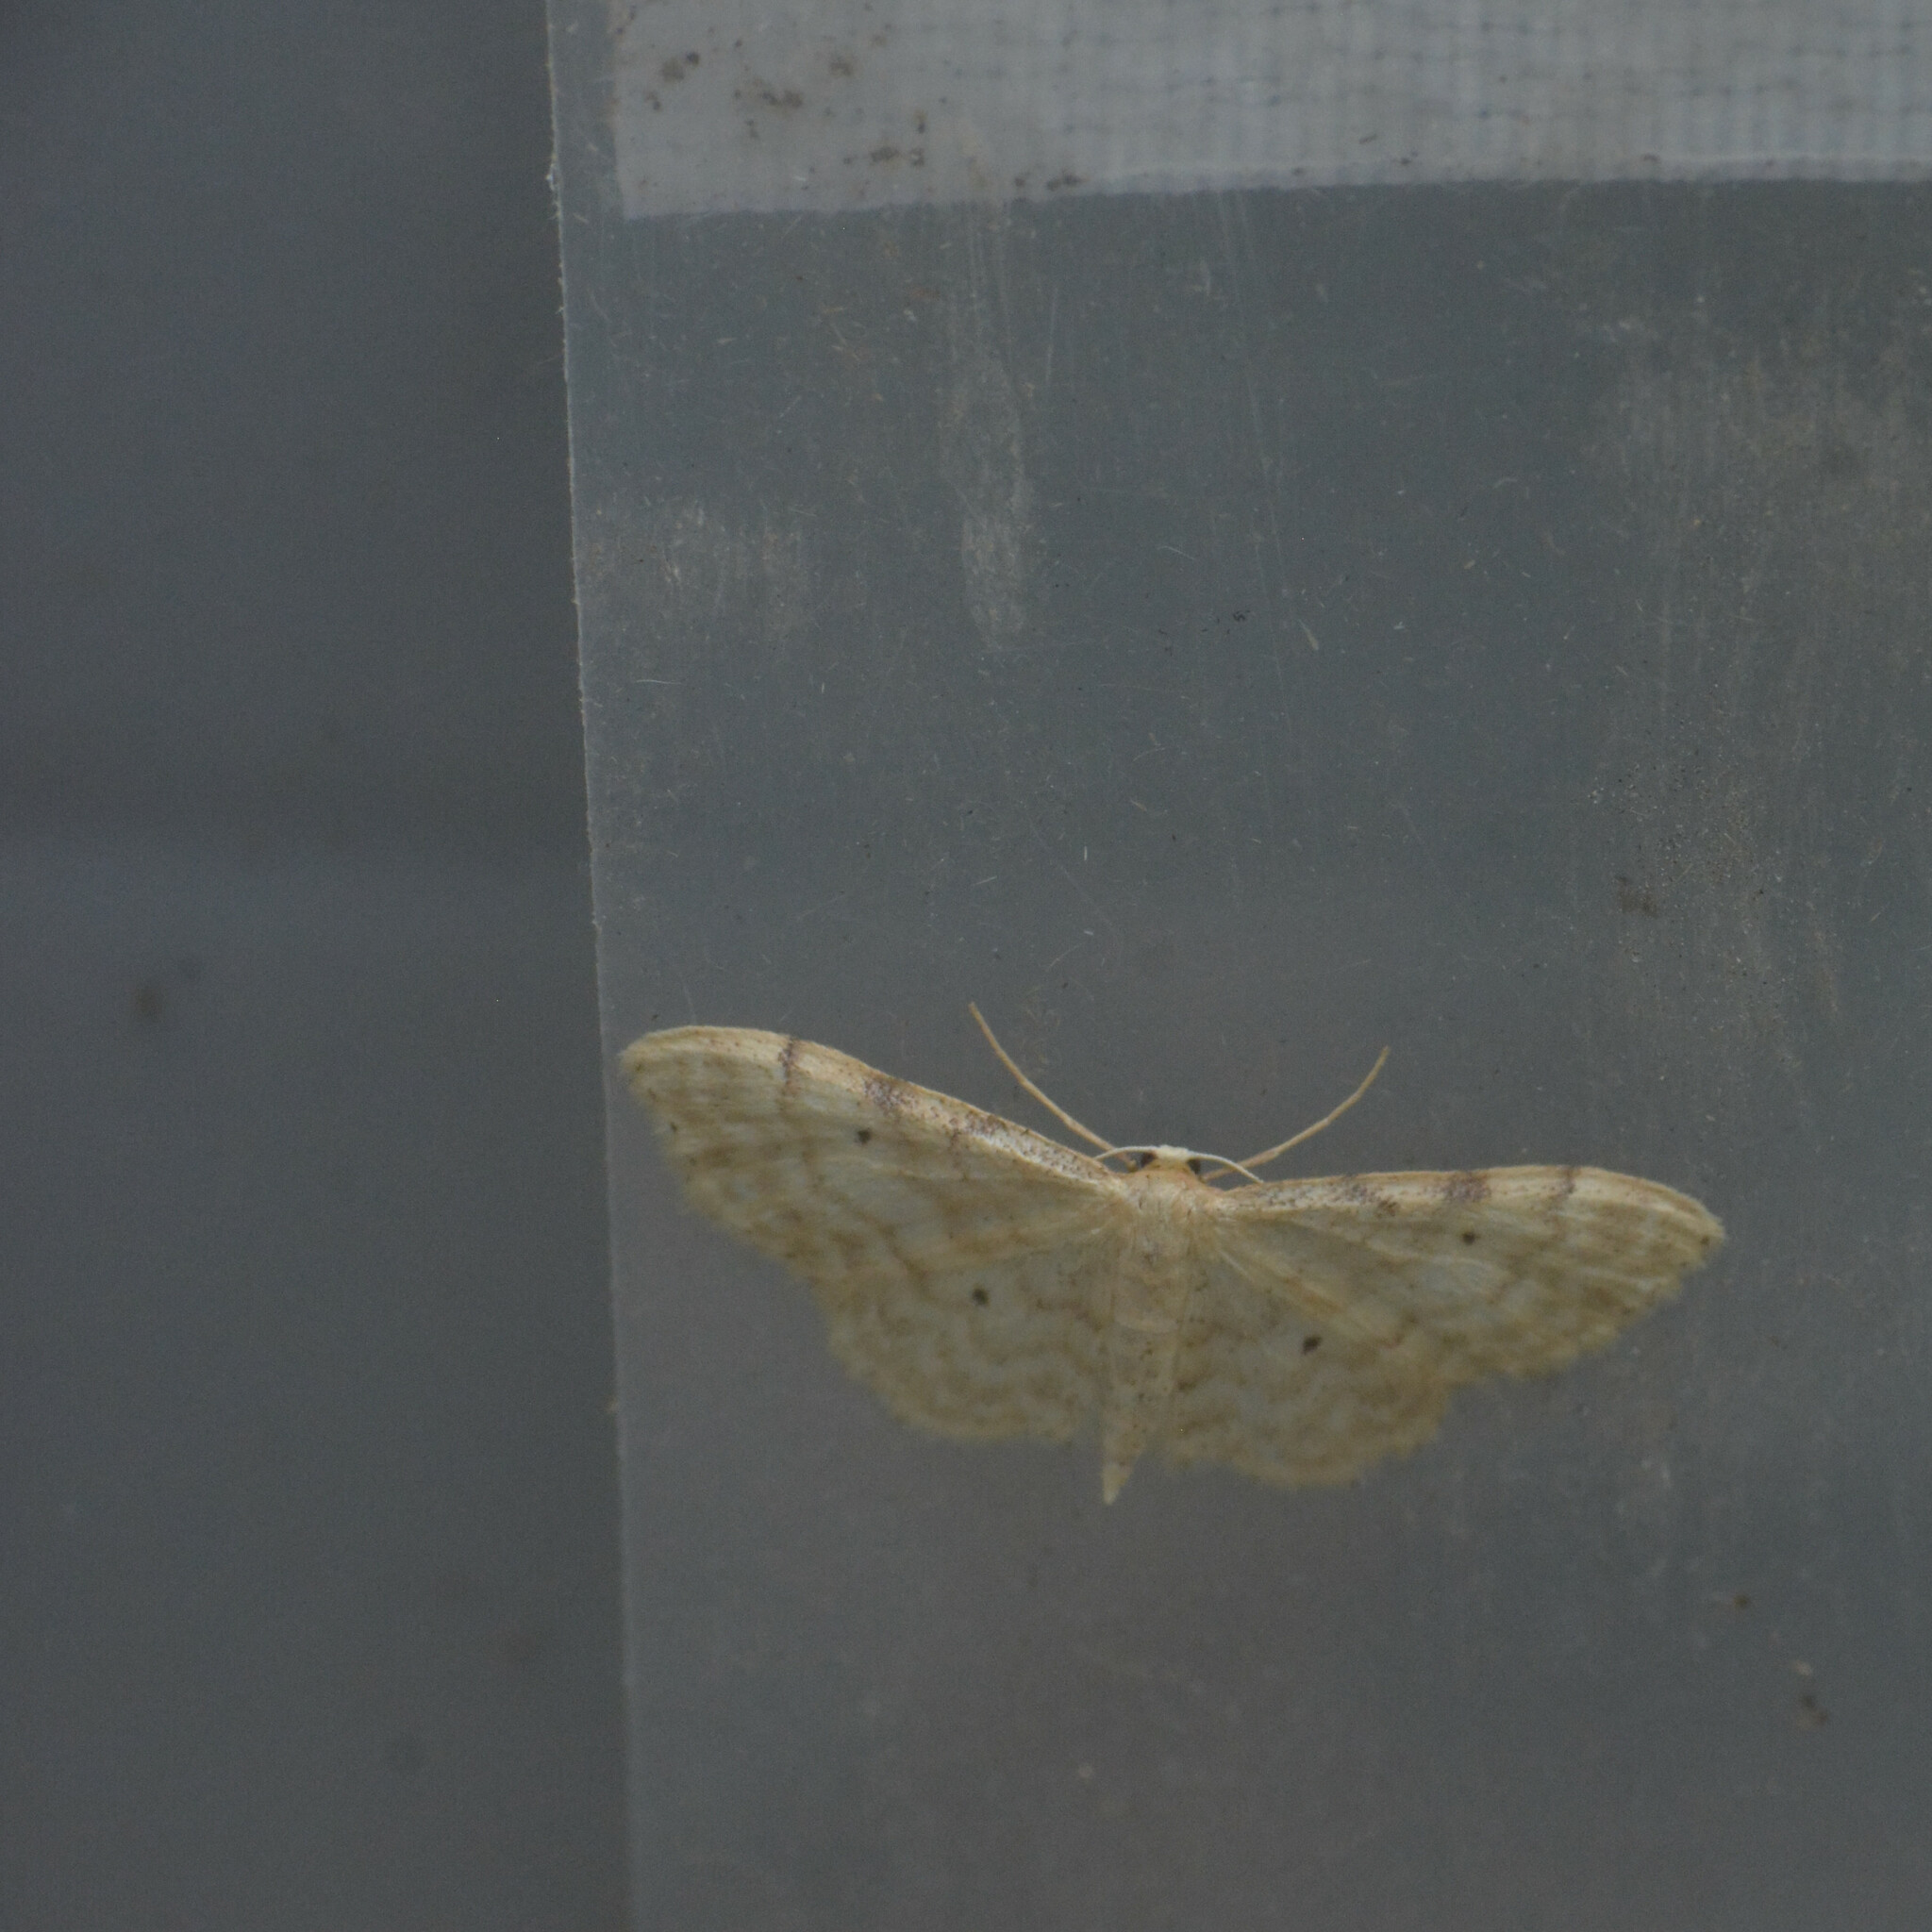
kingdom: Animalia
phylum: Arthropoda
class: Insecta
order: Lepidoptera
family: Geometridae
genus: Idaea
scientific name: Idaea fuscovenosa
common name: Dwarf cream wave
